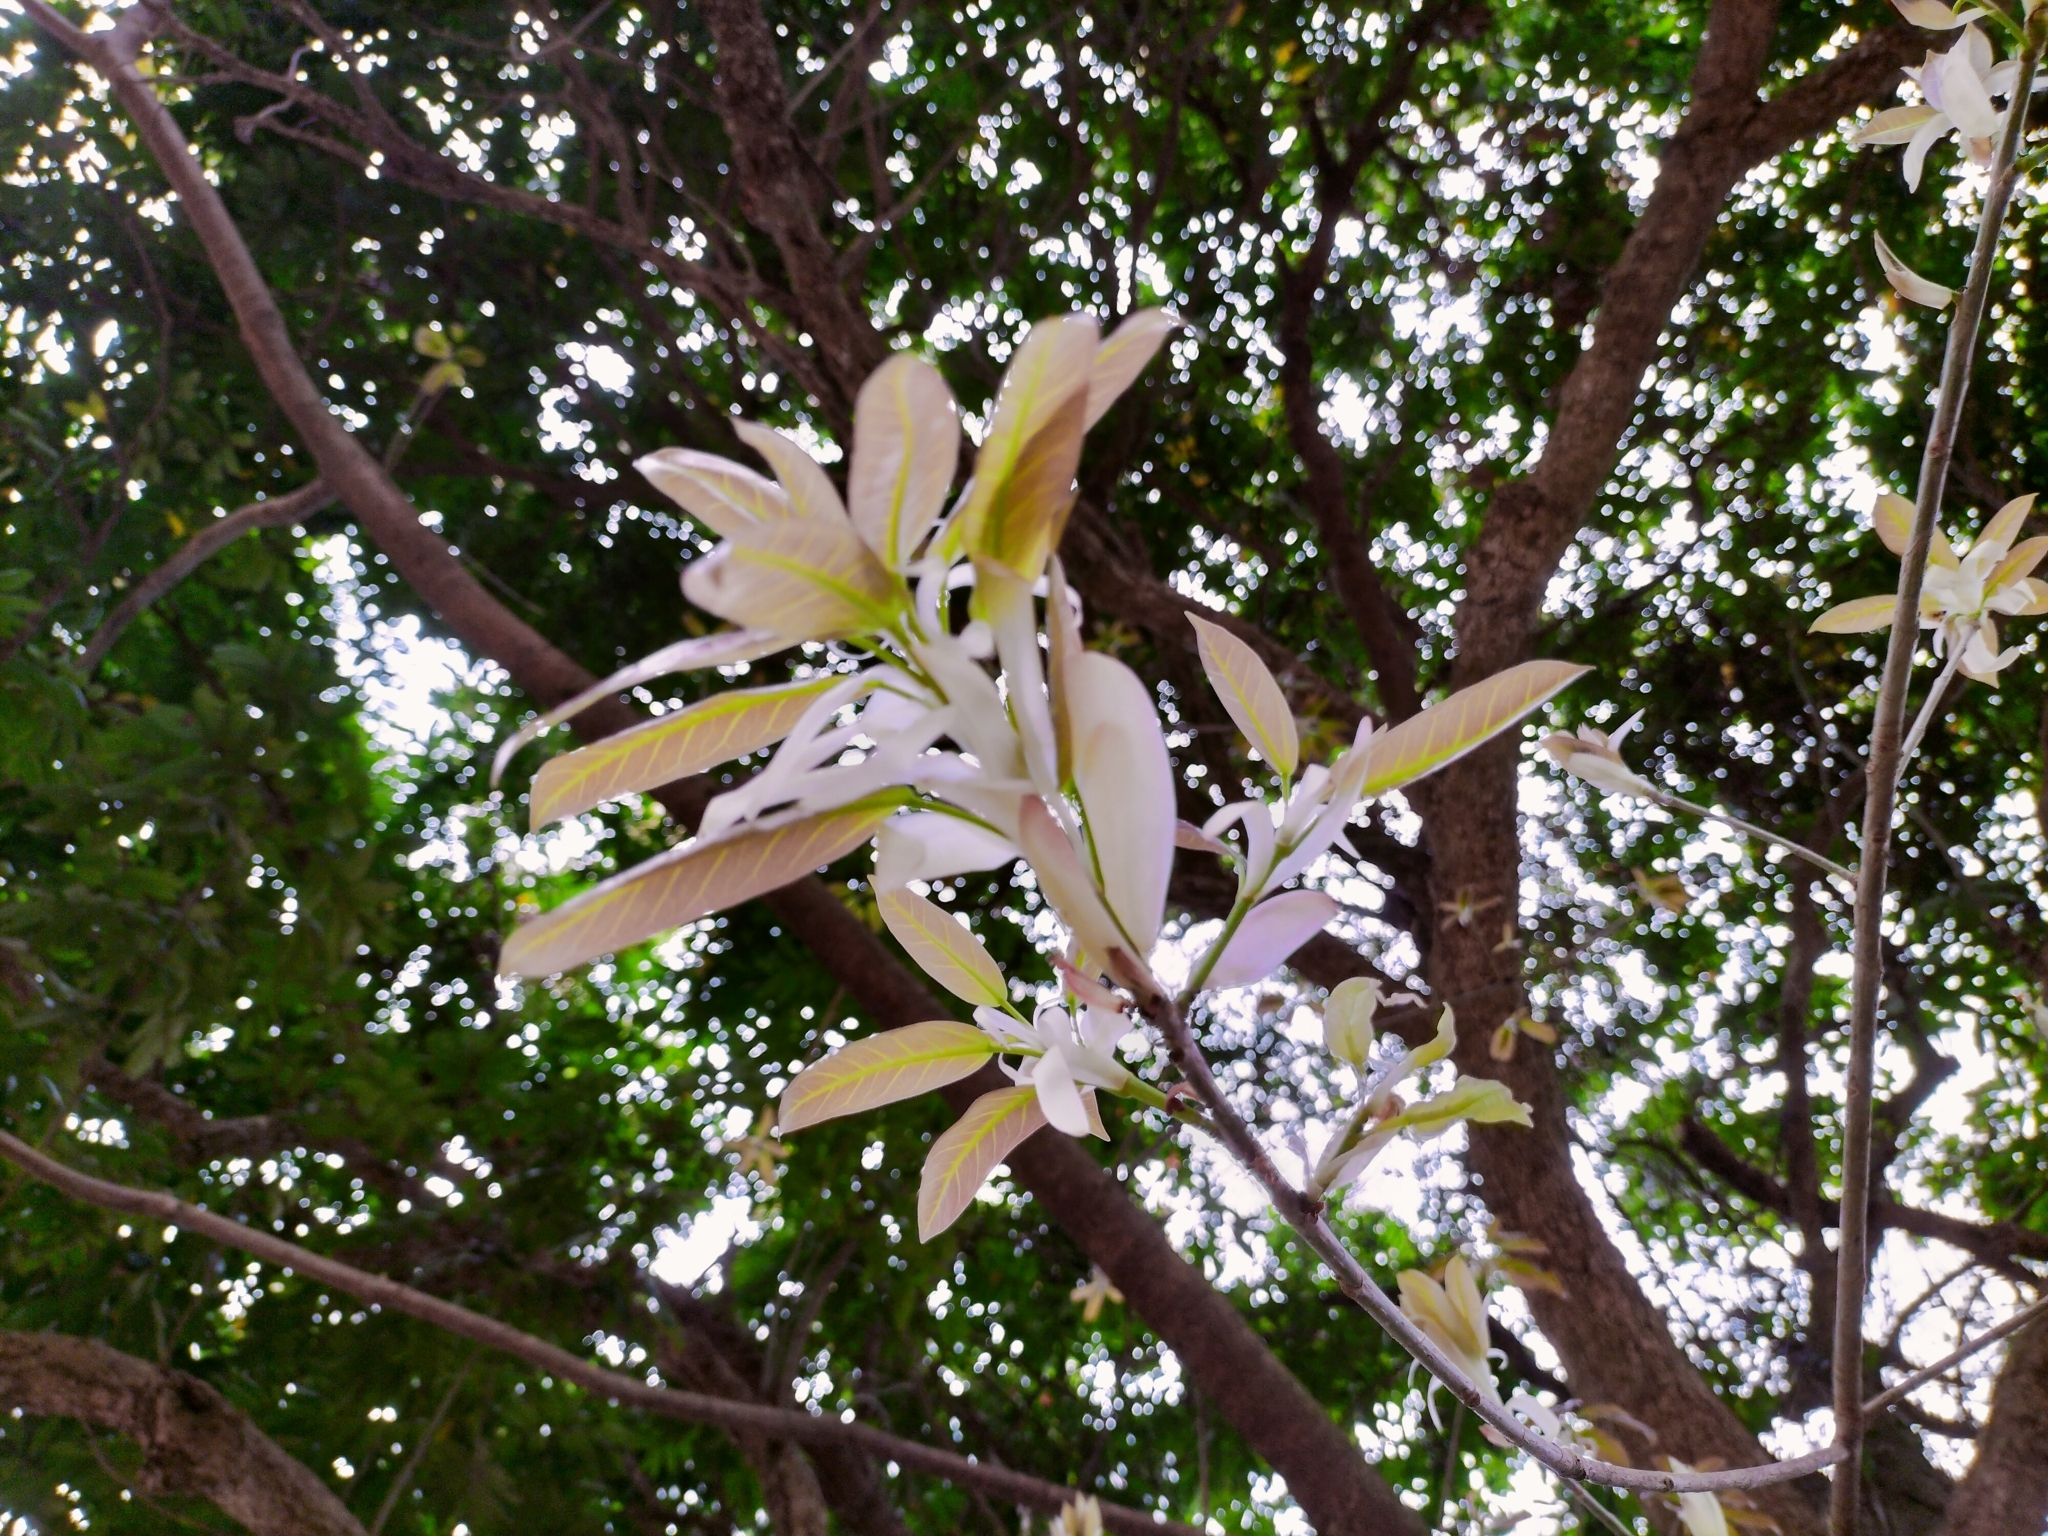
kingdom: Plantae
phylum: Tracheophyta
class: Magnoliopsida
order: Rosales
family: Moraceae
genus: Ficus
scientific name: Ficus subpisocarpa
